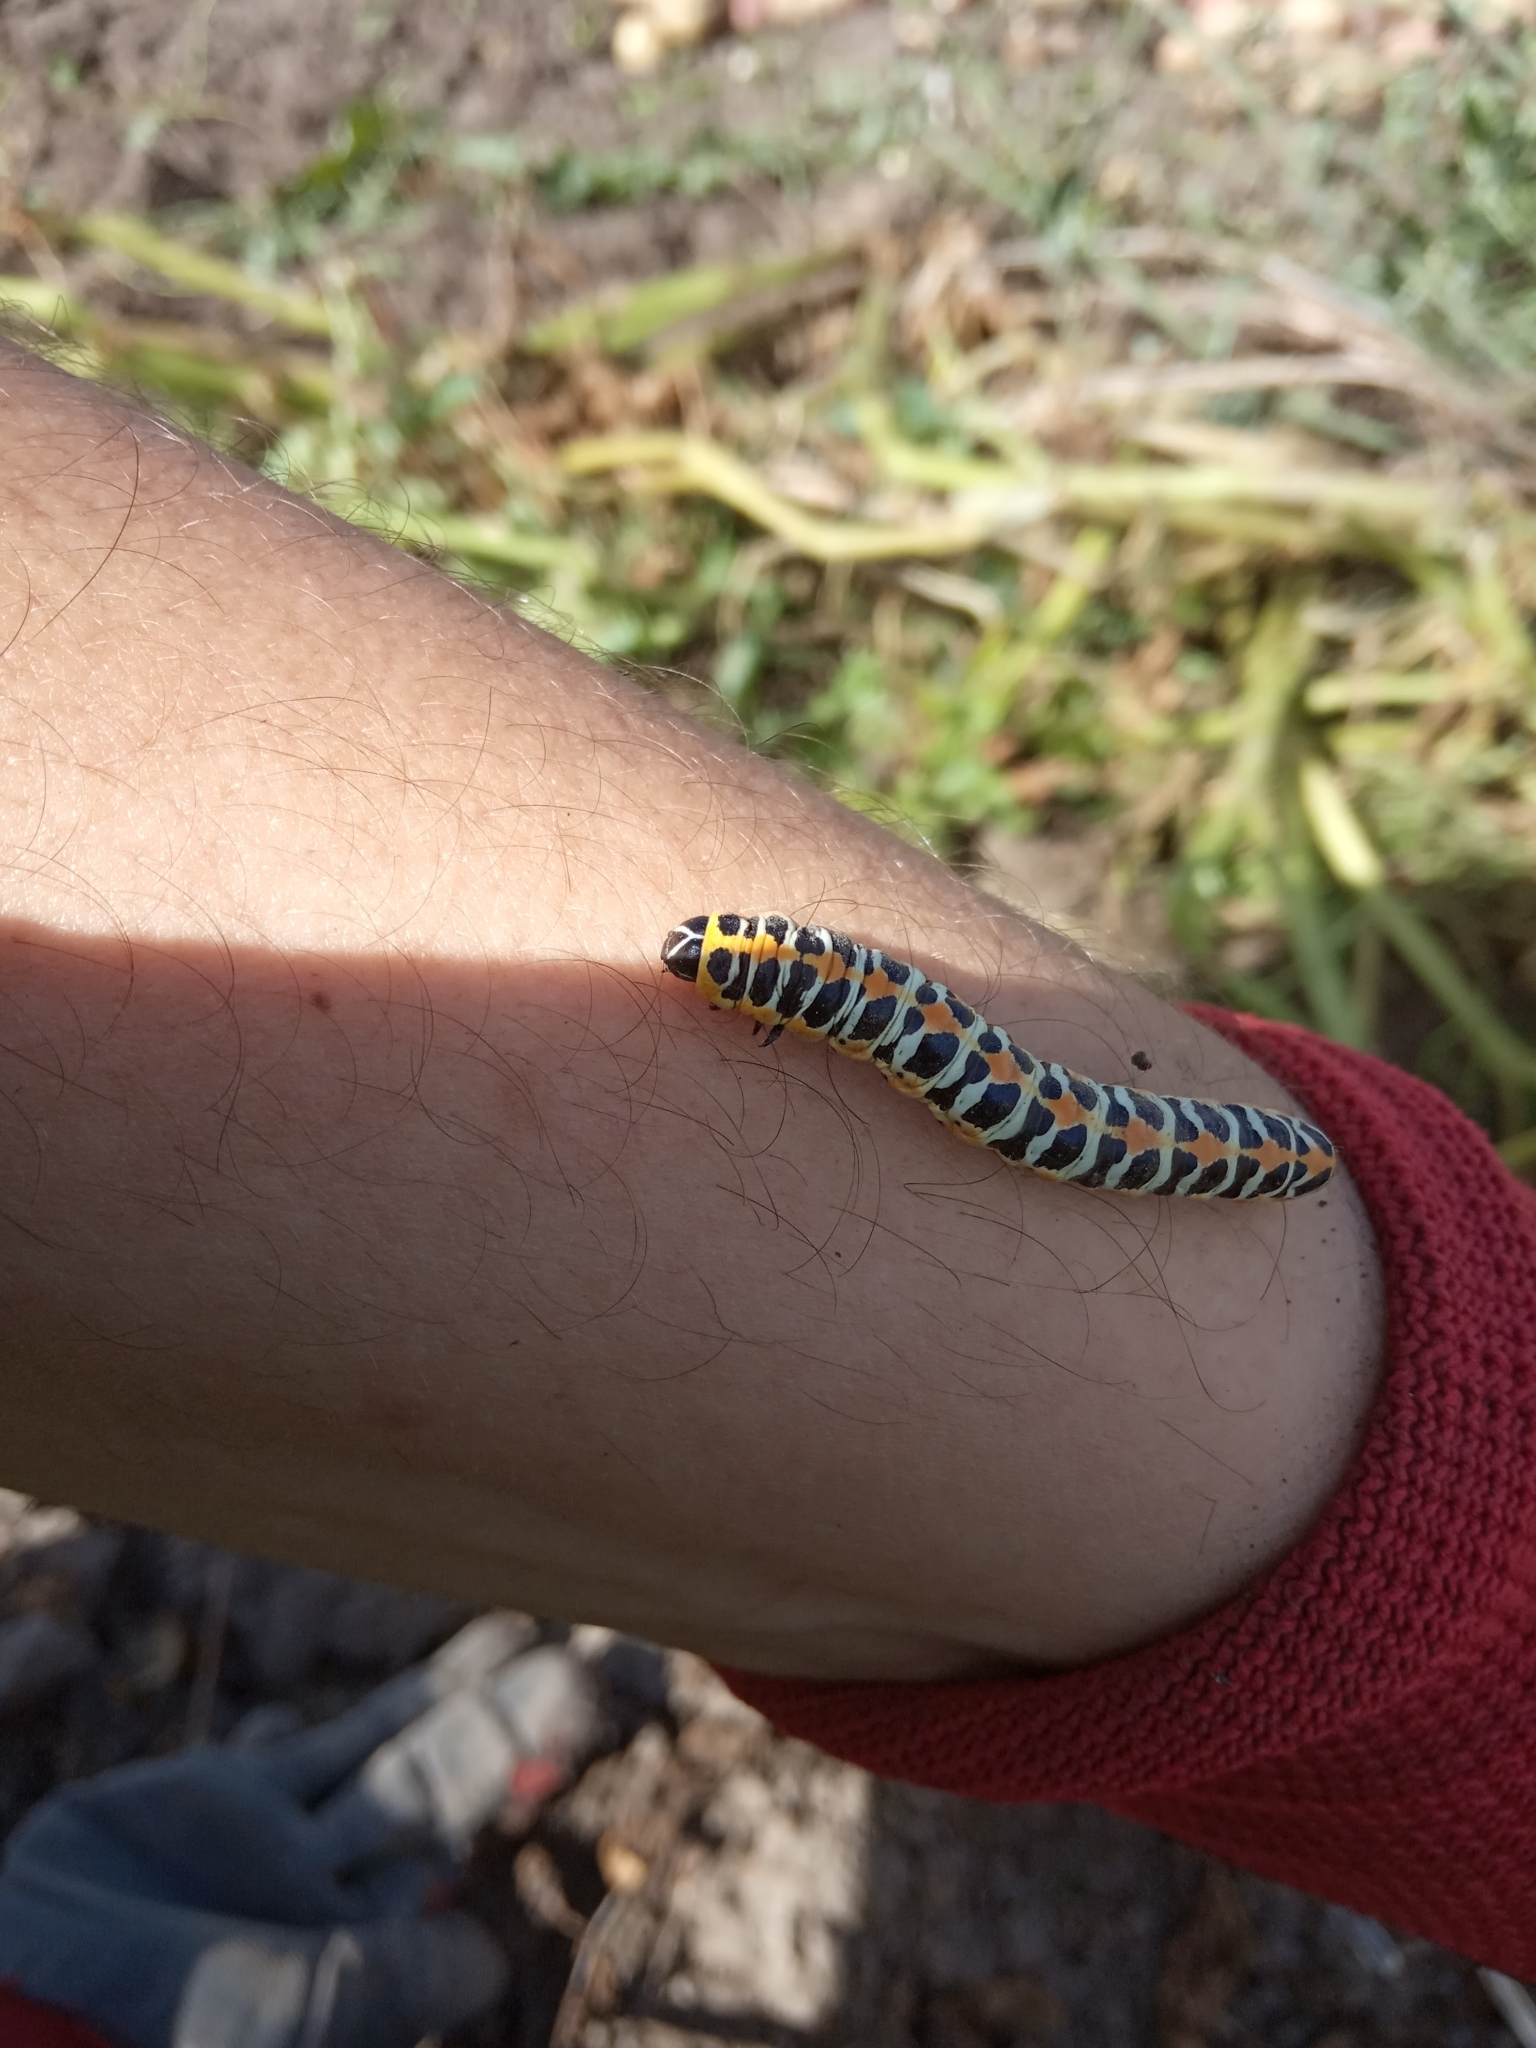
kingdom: Animalia
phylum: Arthropoda
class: Insecta
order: Lepidoptera
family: Noctuidae
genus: Cucullia
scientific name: Cucullia pustulata
